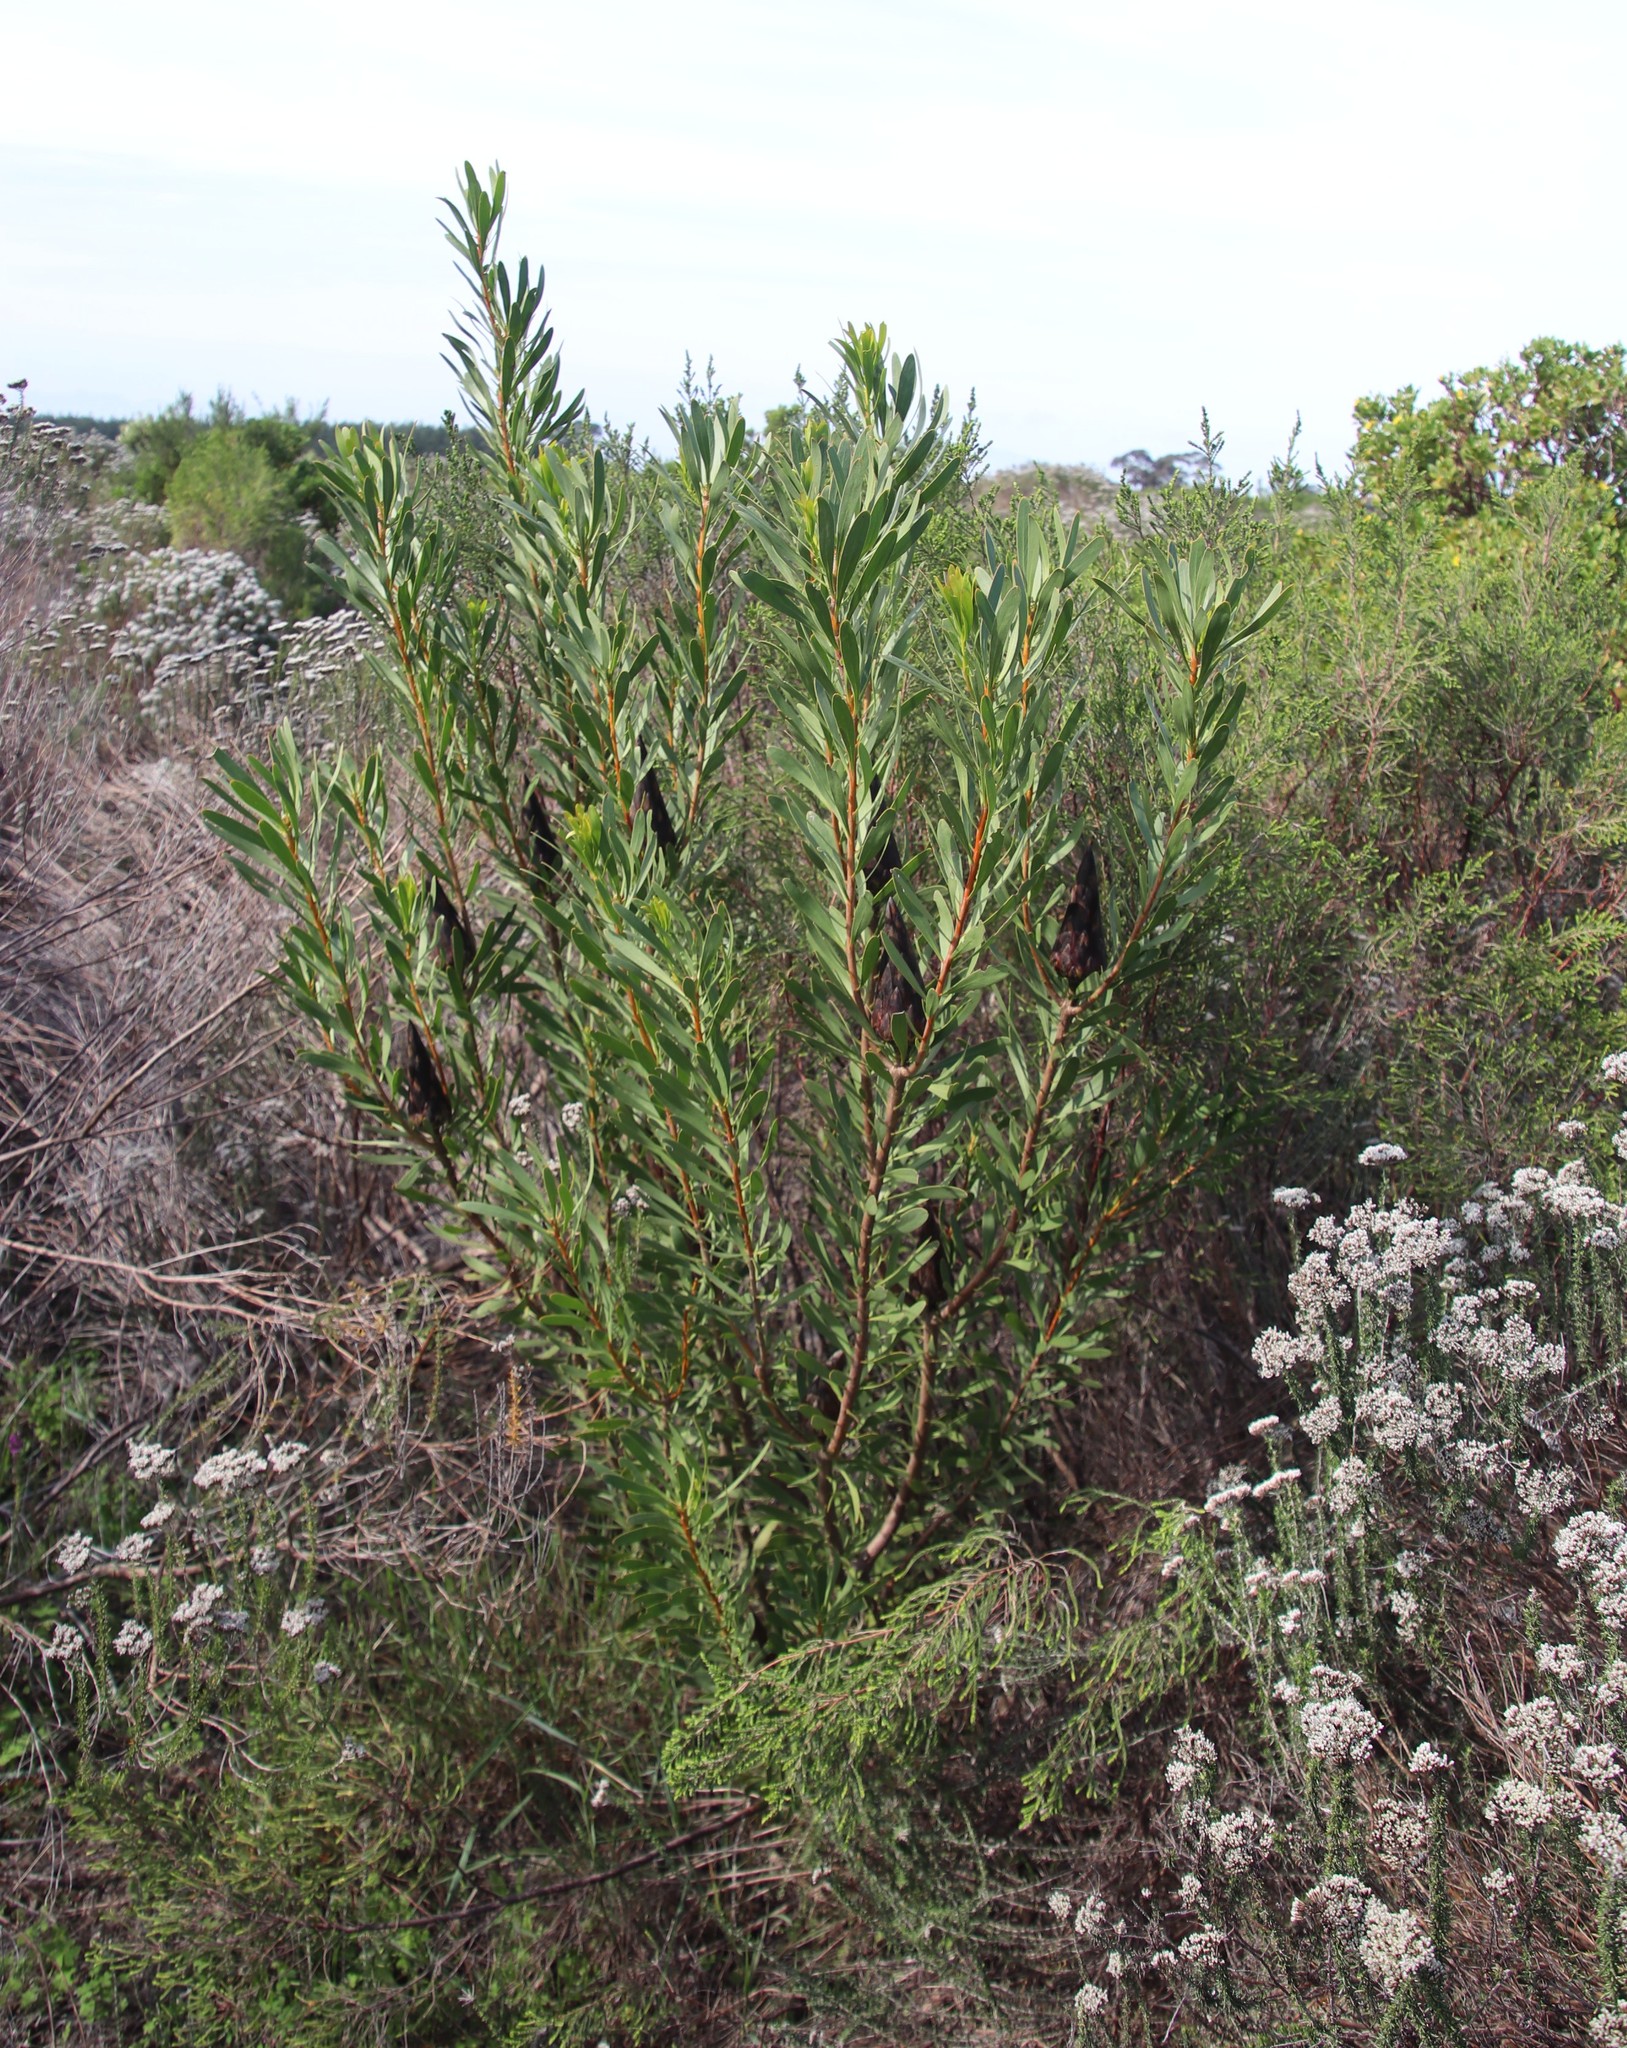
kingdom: Plantae
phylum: Tracheophyta
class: Magnoliopsida
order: Proteales
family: Proteaceae
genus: Protea
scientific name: Protea repens
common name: Sugarbush
